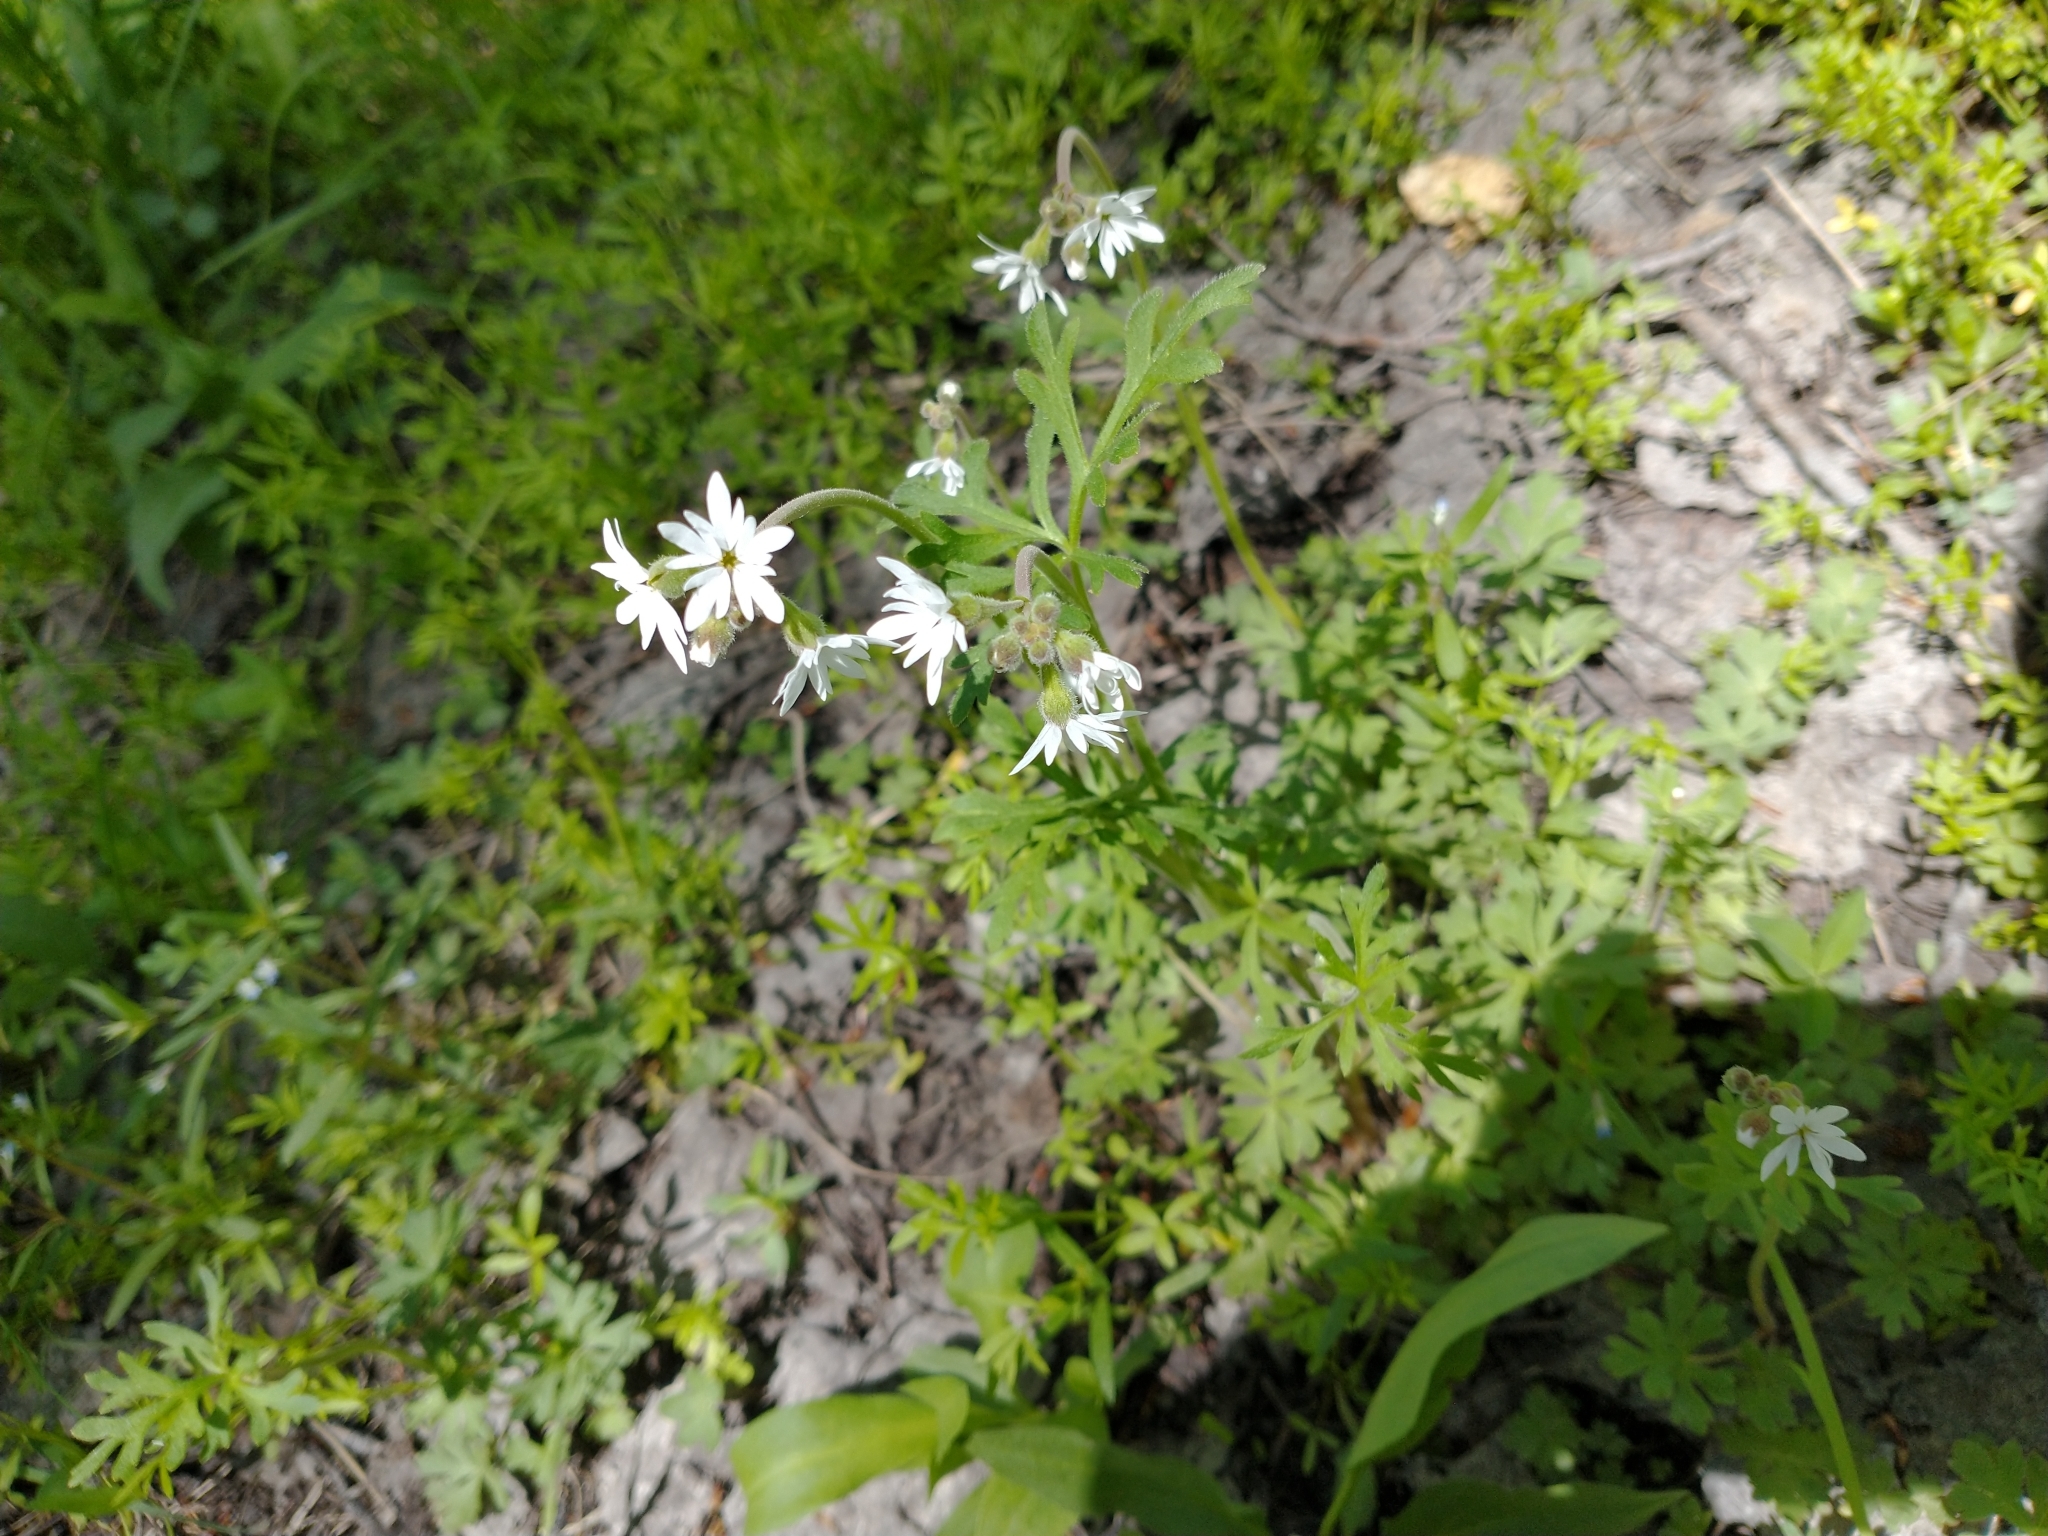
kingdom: Plantae
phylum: Tracheophyta
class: Magnoliopsida
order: Saxifragales
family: Saxifragaceae
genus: Lithophragma
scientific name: Lithophragma parviflorum
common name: Small-flowered fringe-cup
